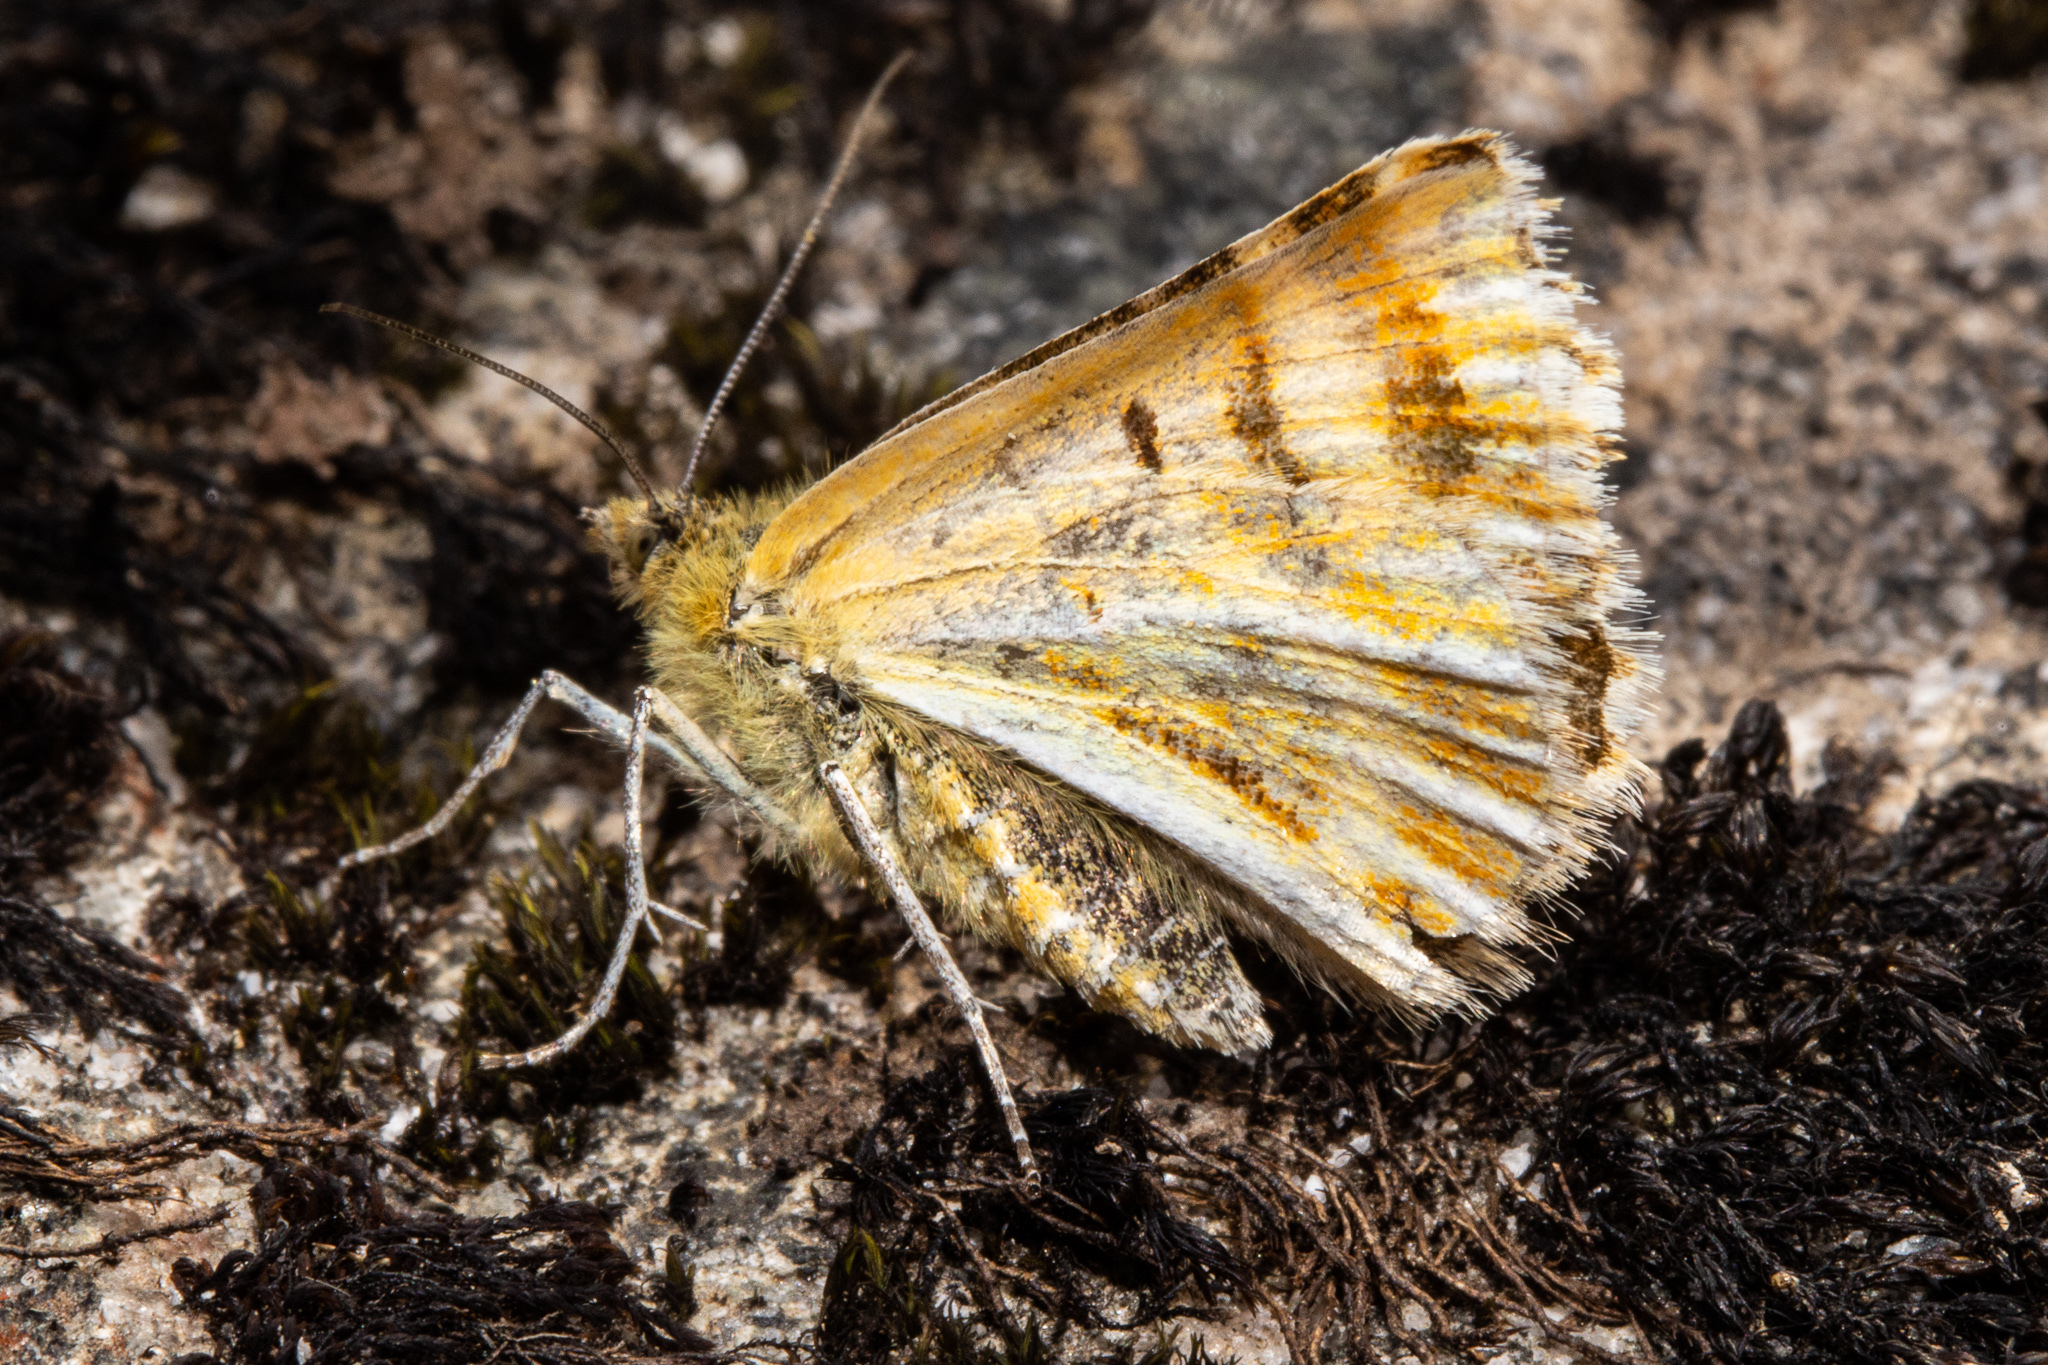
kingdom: Animalia
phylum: Arthropoda
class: Insecta
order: Lepidoptera
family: Geometridae
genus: Dasyuris
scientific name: Dasyuris partheniata
